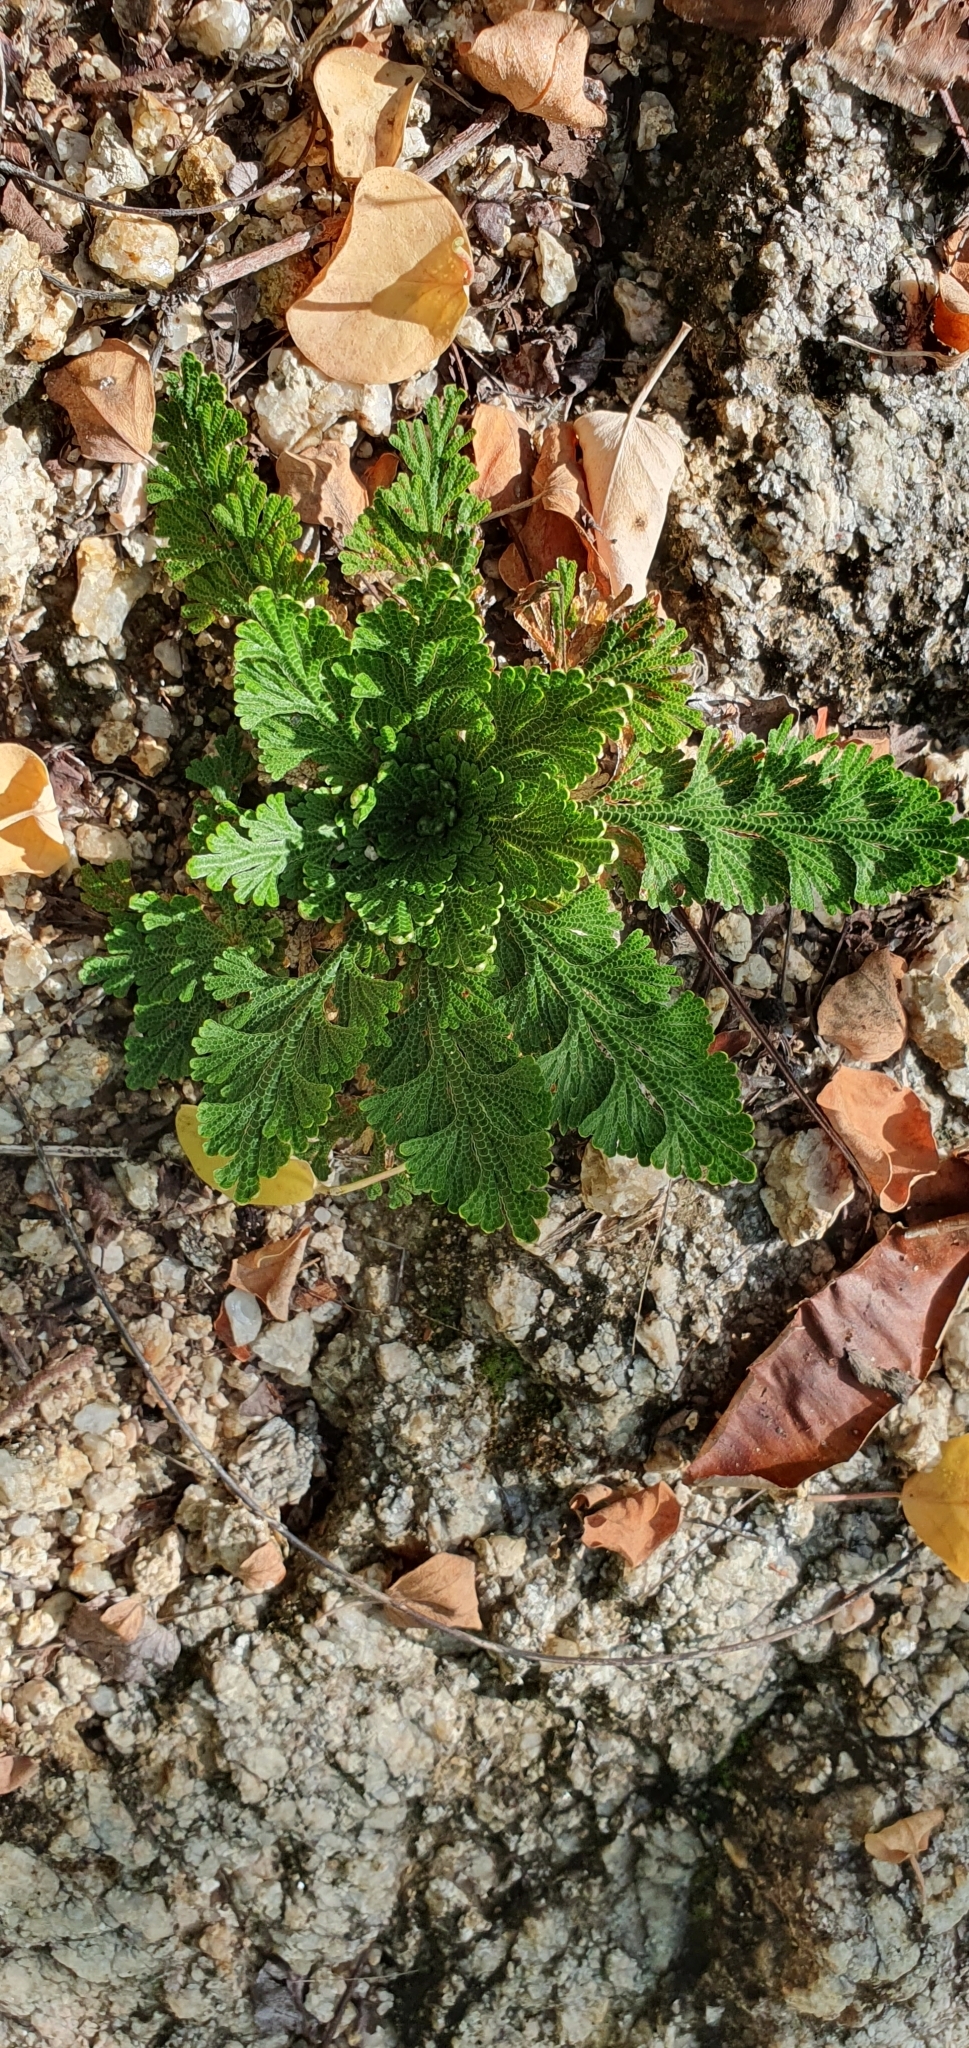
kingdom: Plantae
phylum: Tracheophyta
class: Lycopodiopsida
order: Selaginellales
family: Selaginellaceae
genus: Selaginella
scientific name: Selaginella lepidophylla
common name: Rose-of-jericho
